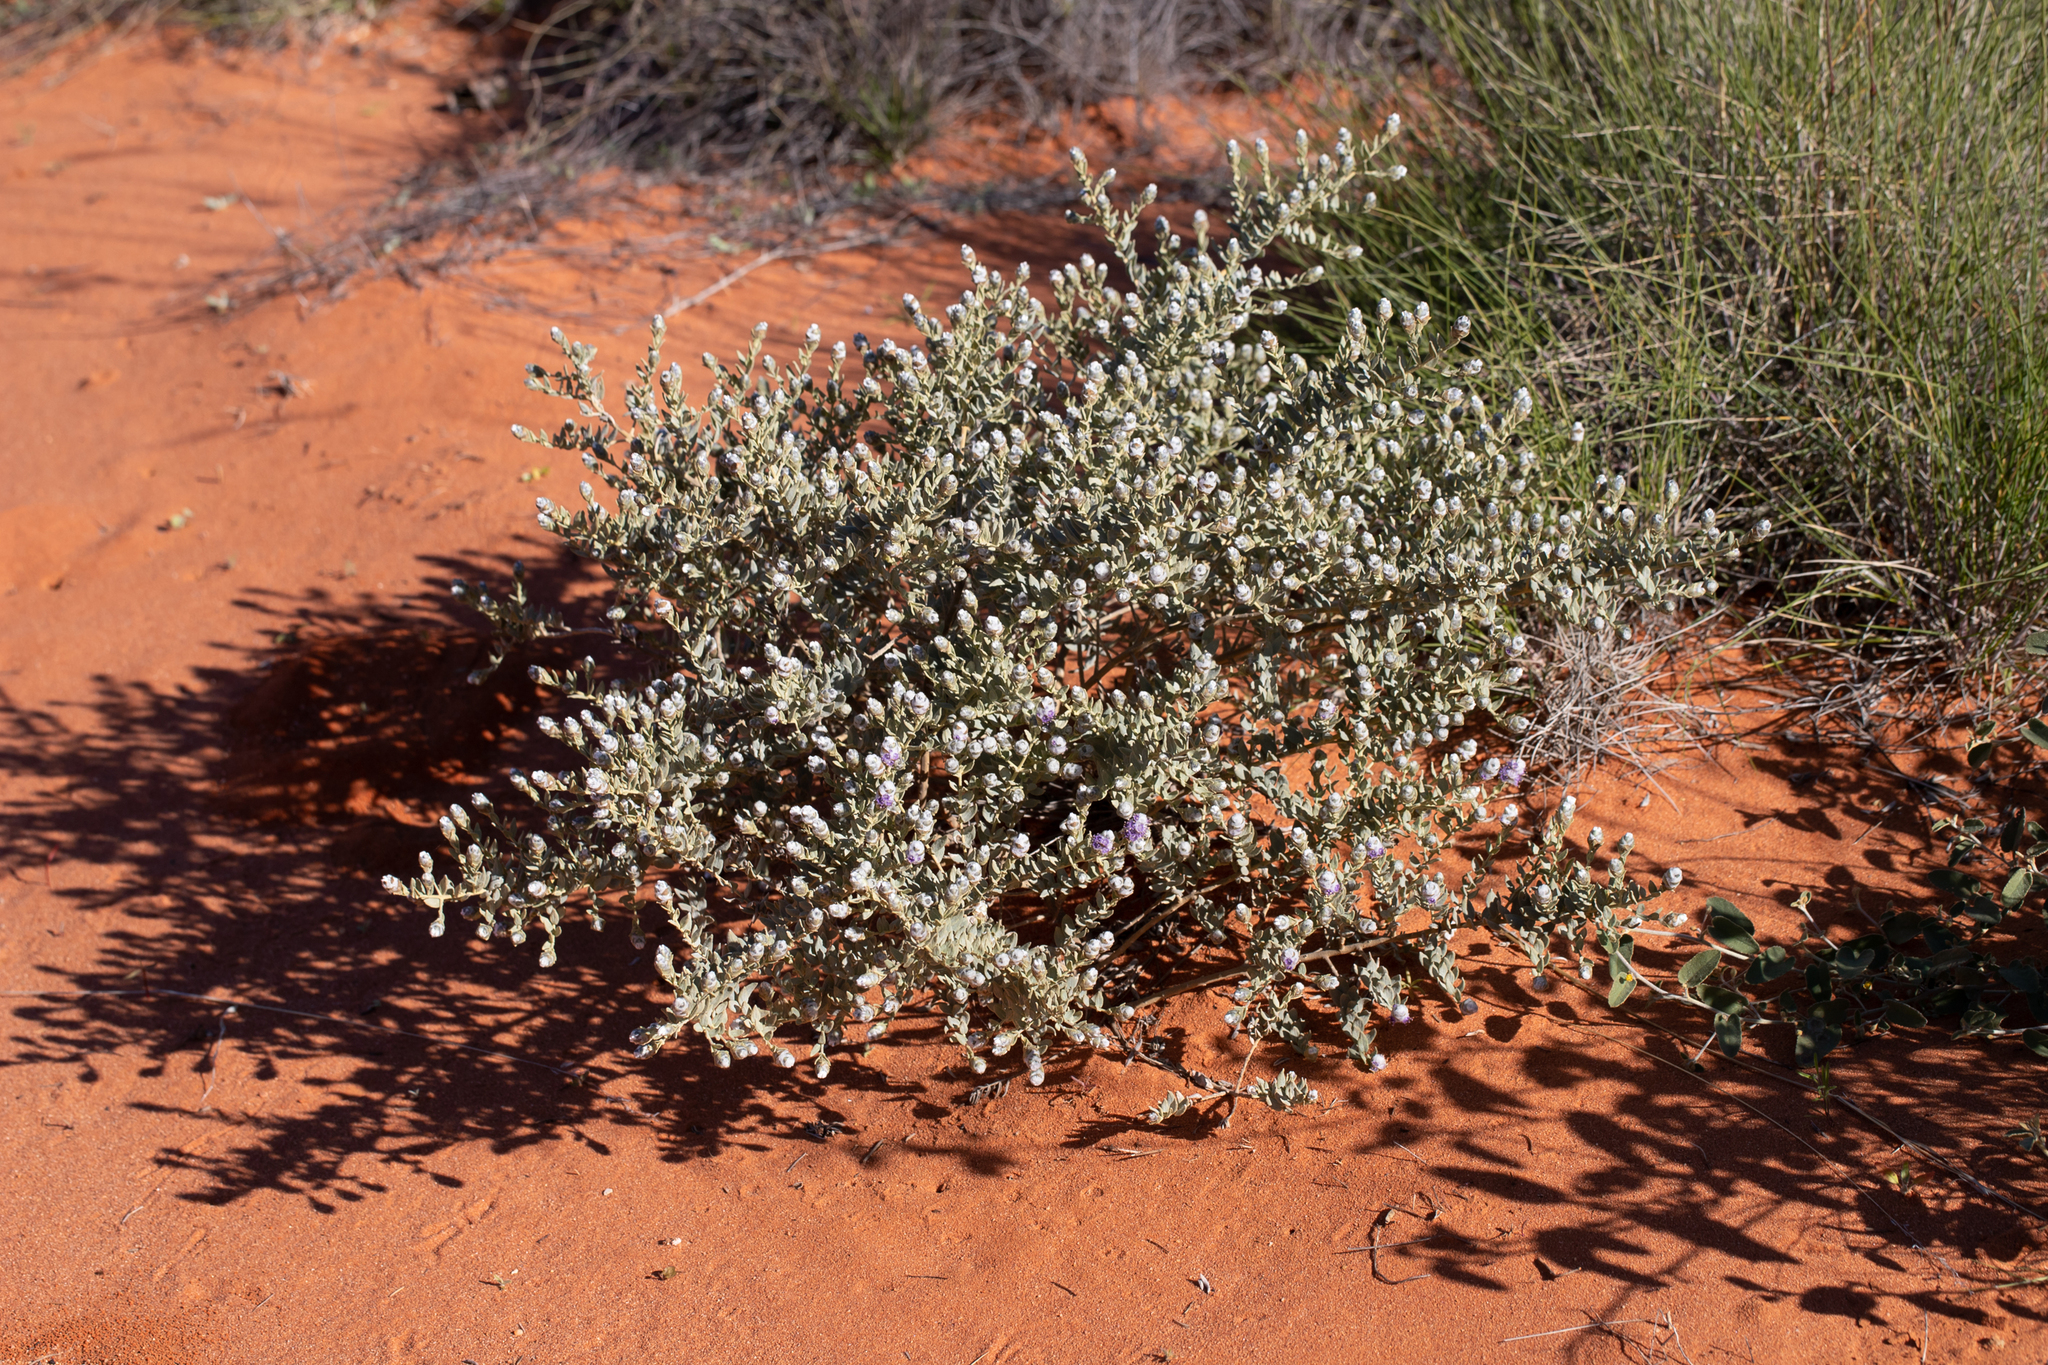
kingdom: Plantae
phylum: Tracheophyta
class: Magnoliopsida
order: Lamiales
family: Lamiaceae
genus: Newcastelia
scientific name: Newcastelia cephalantha
